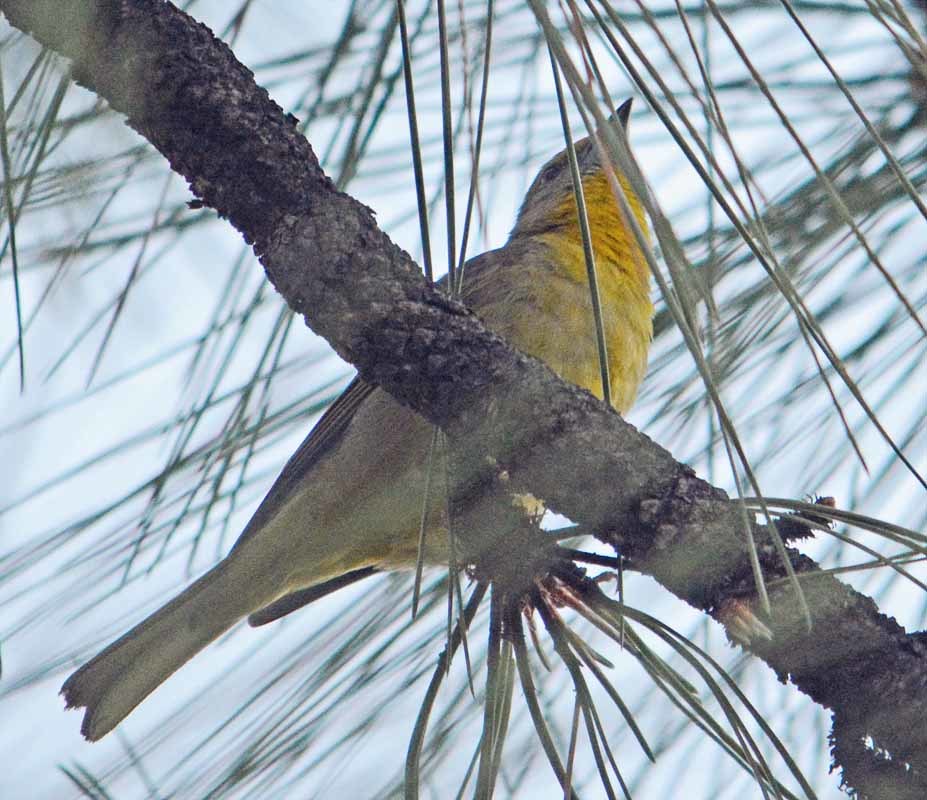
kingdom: Animalia
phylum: Chordata
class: Aves
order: Passeriformes
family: Cardinalidae
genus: Piranga
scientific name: Piranga flava
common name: Red tanager
